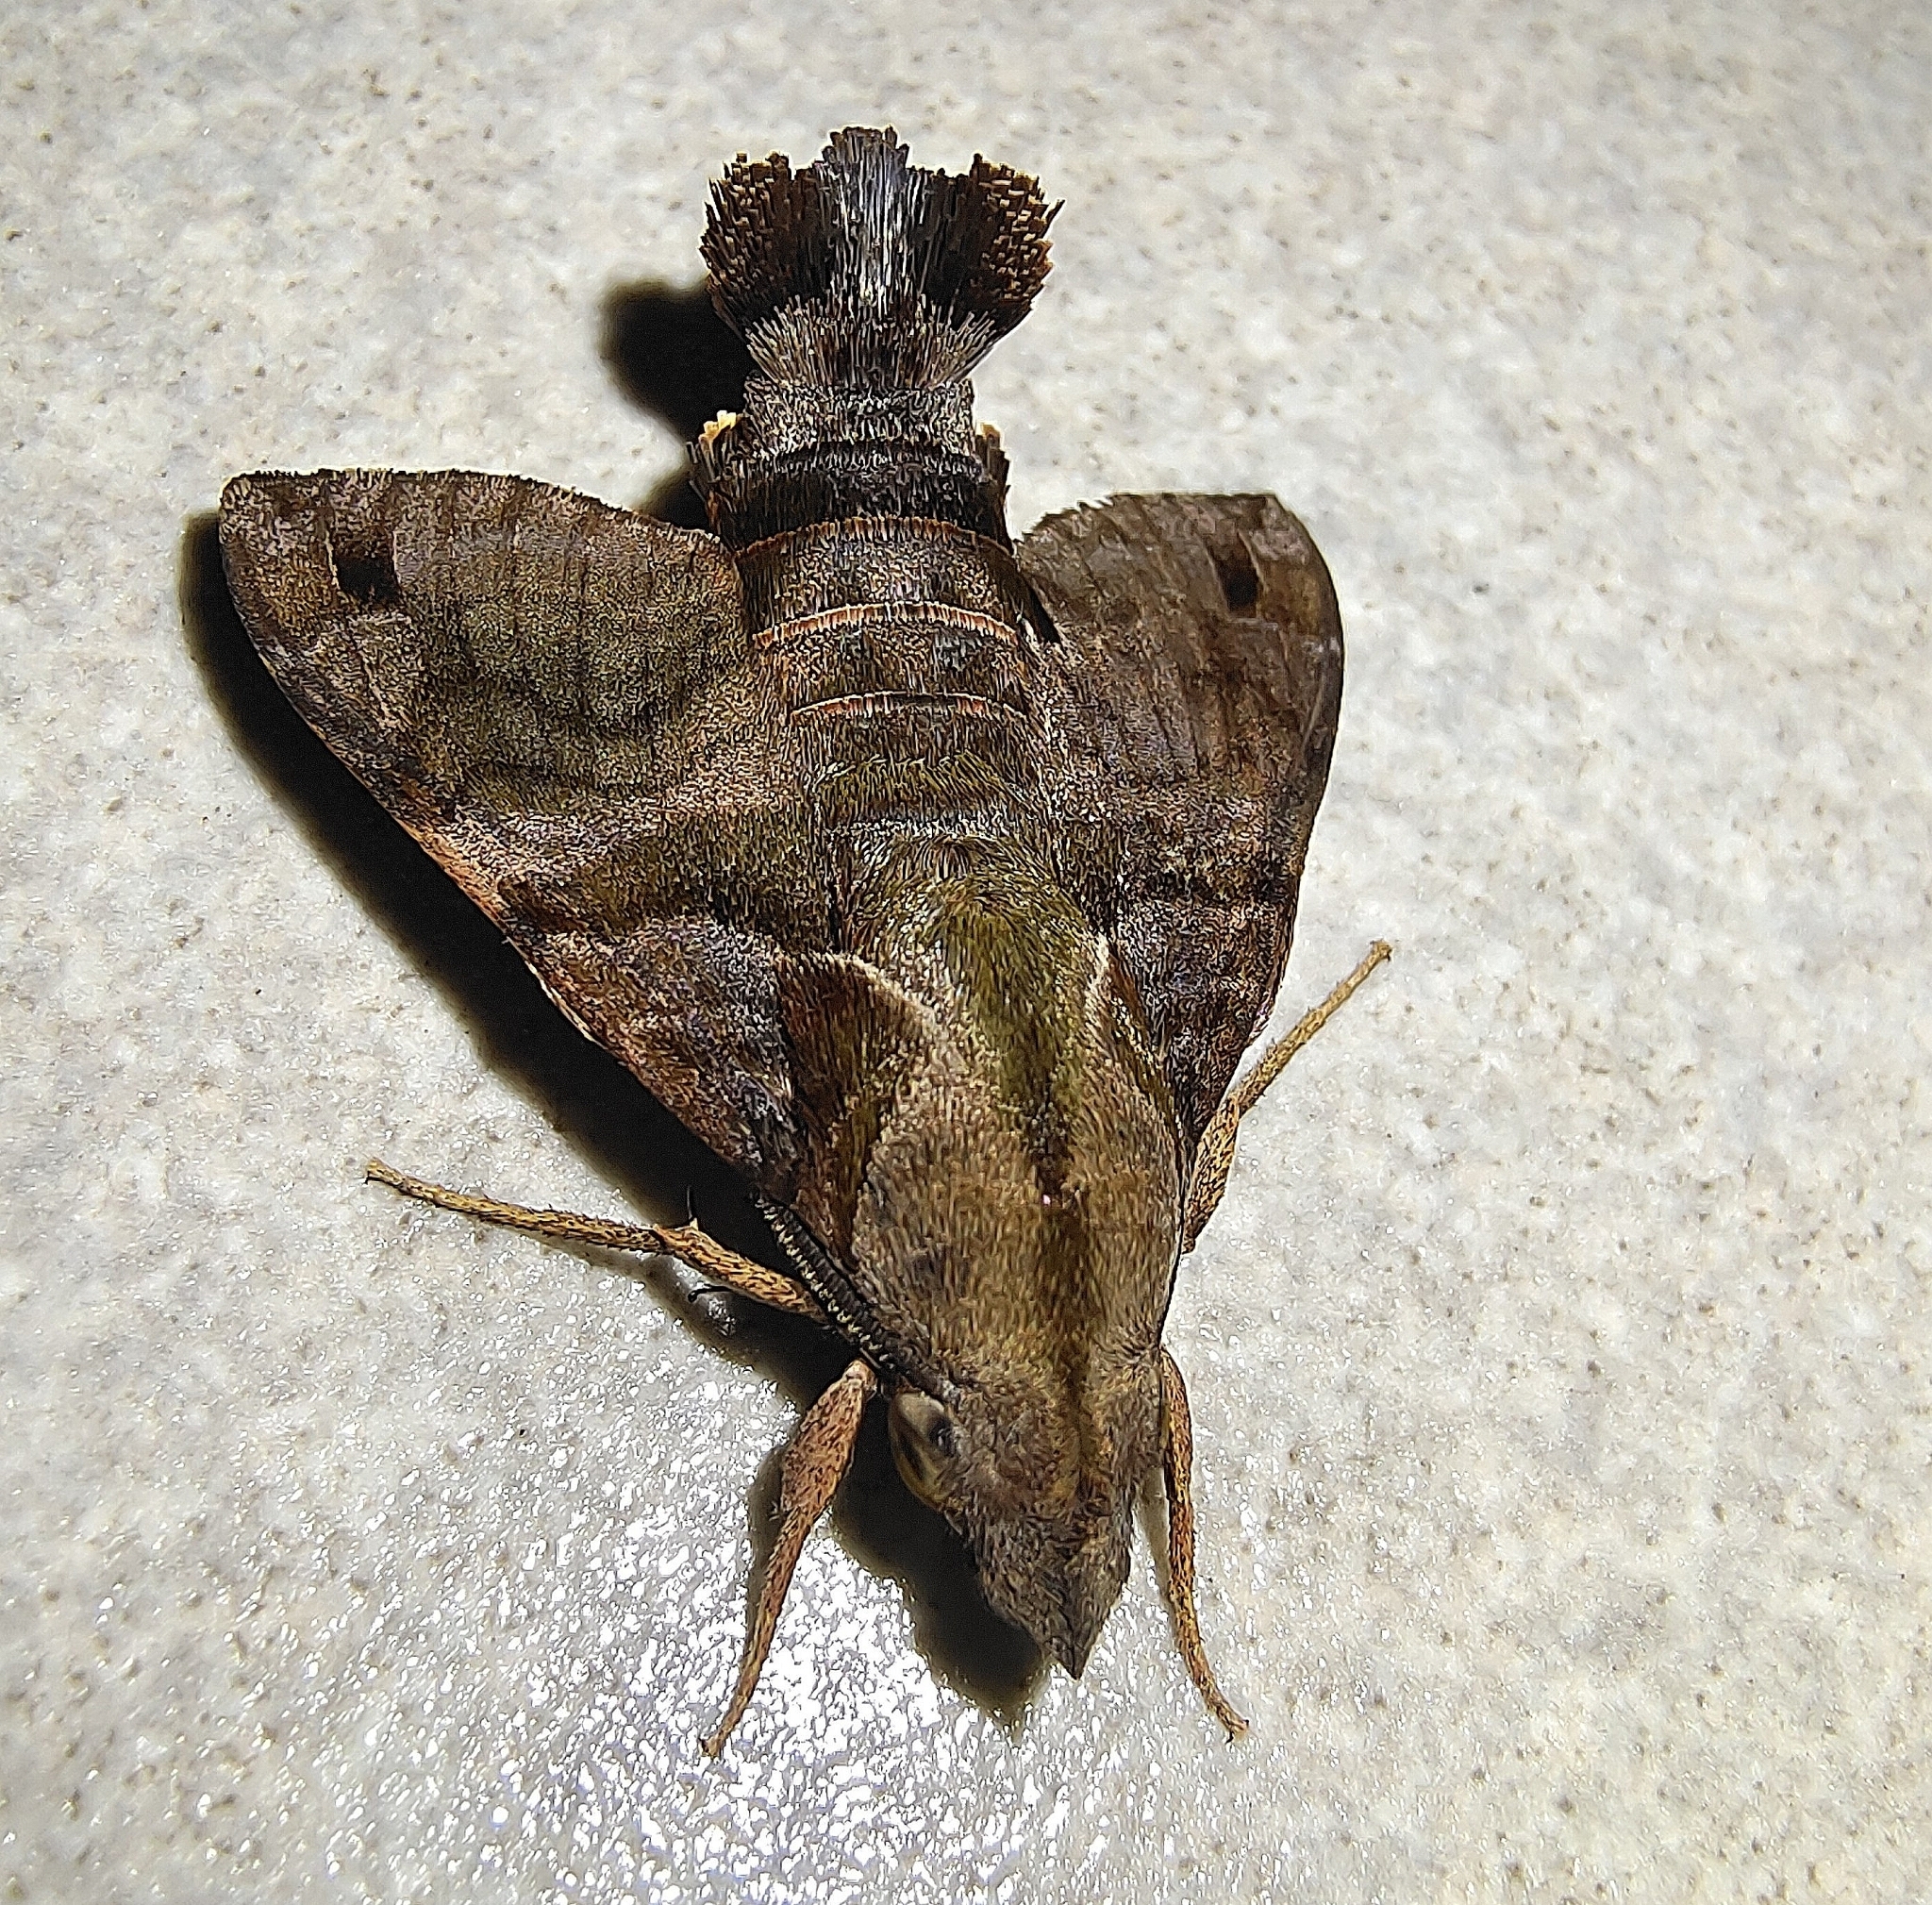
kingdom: Animalia
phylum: Arthropoda
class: Insecta
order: Lepidoptera
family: Sphingidae
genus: Macroglossum
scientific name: Macroglossum corythus
